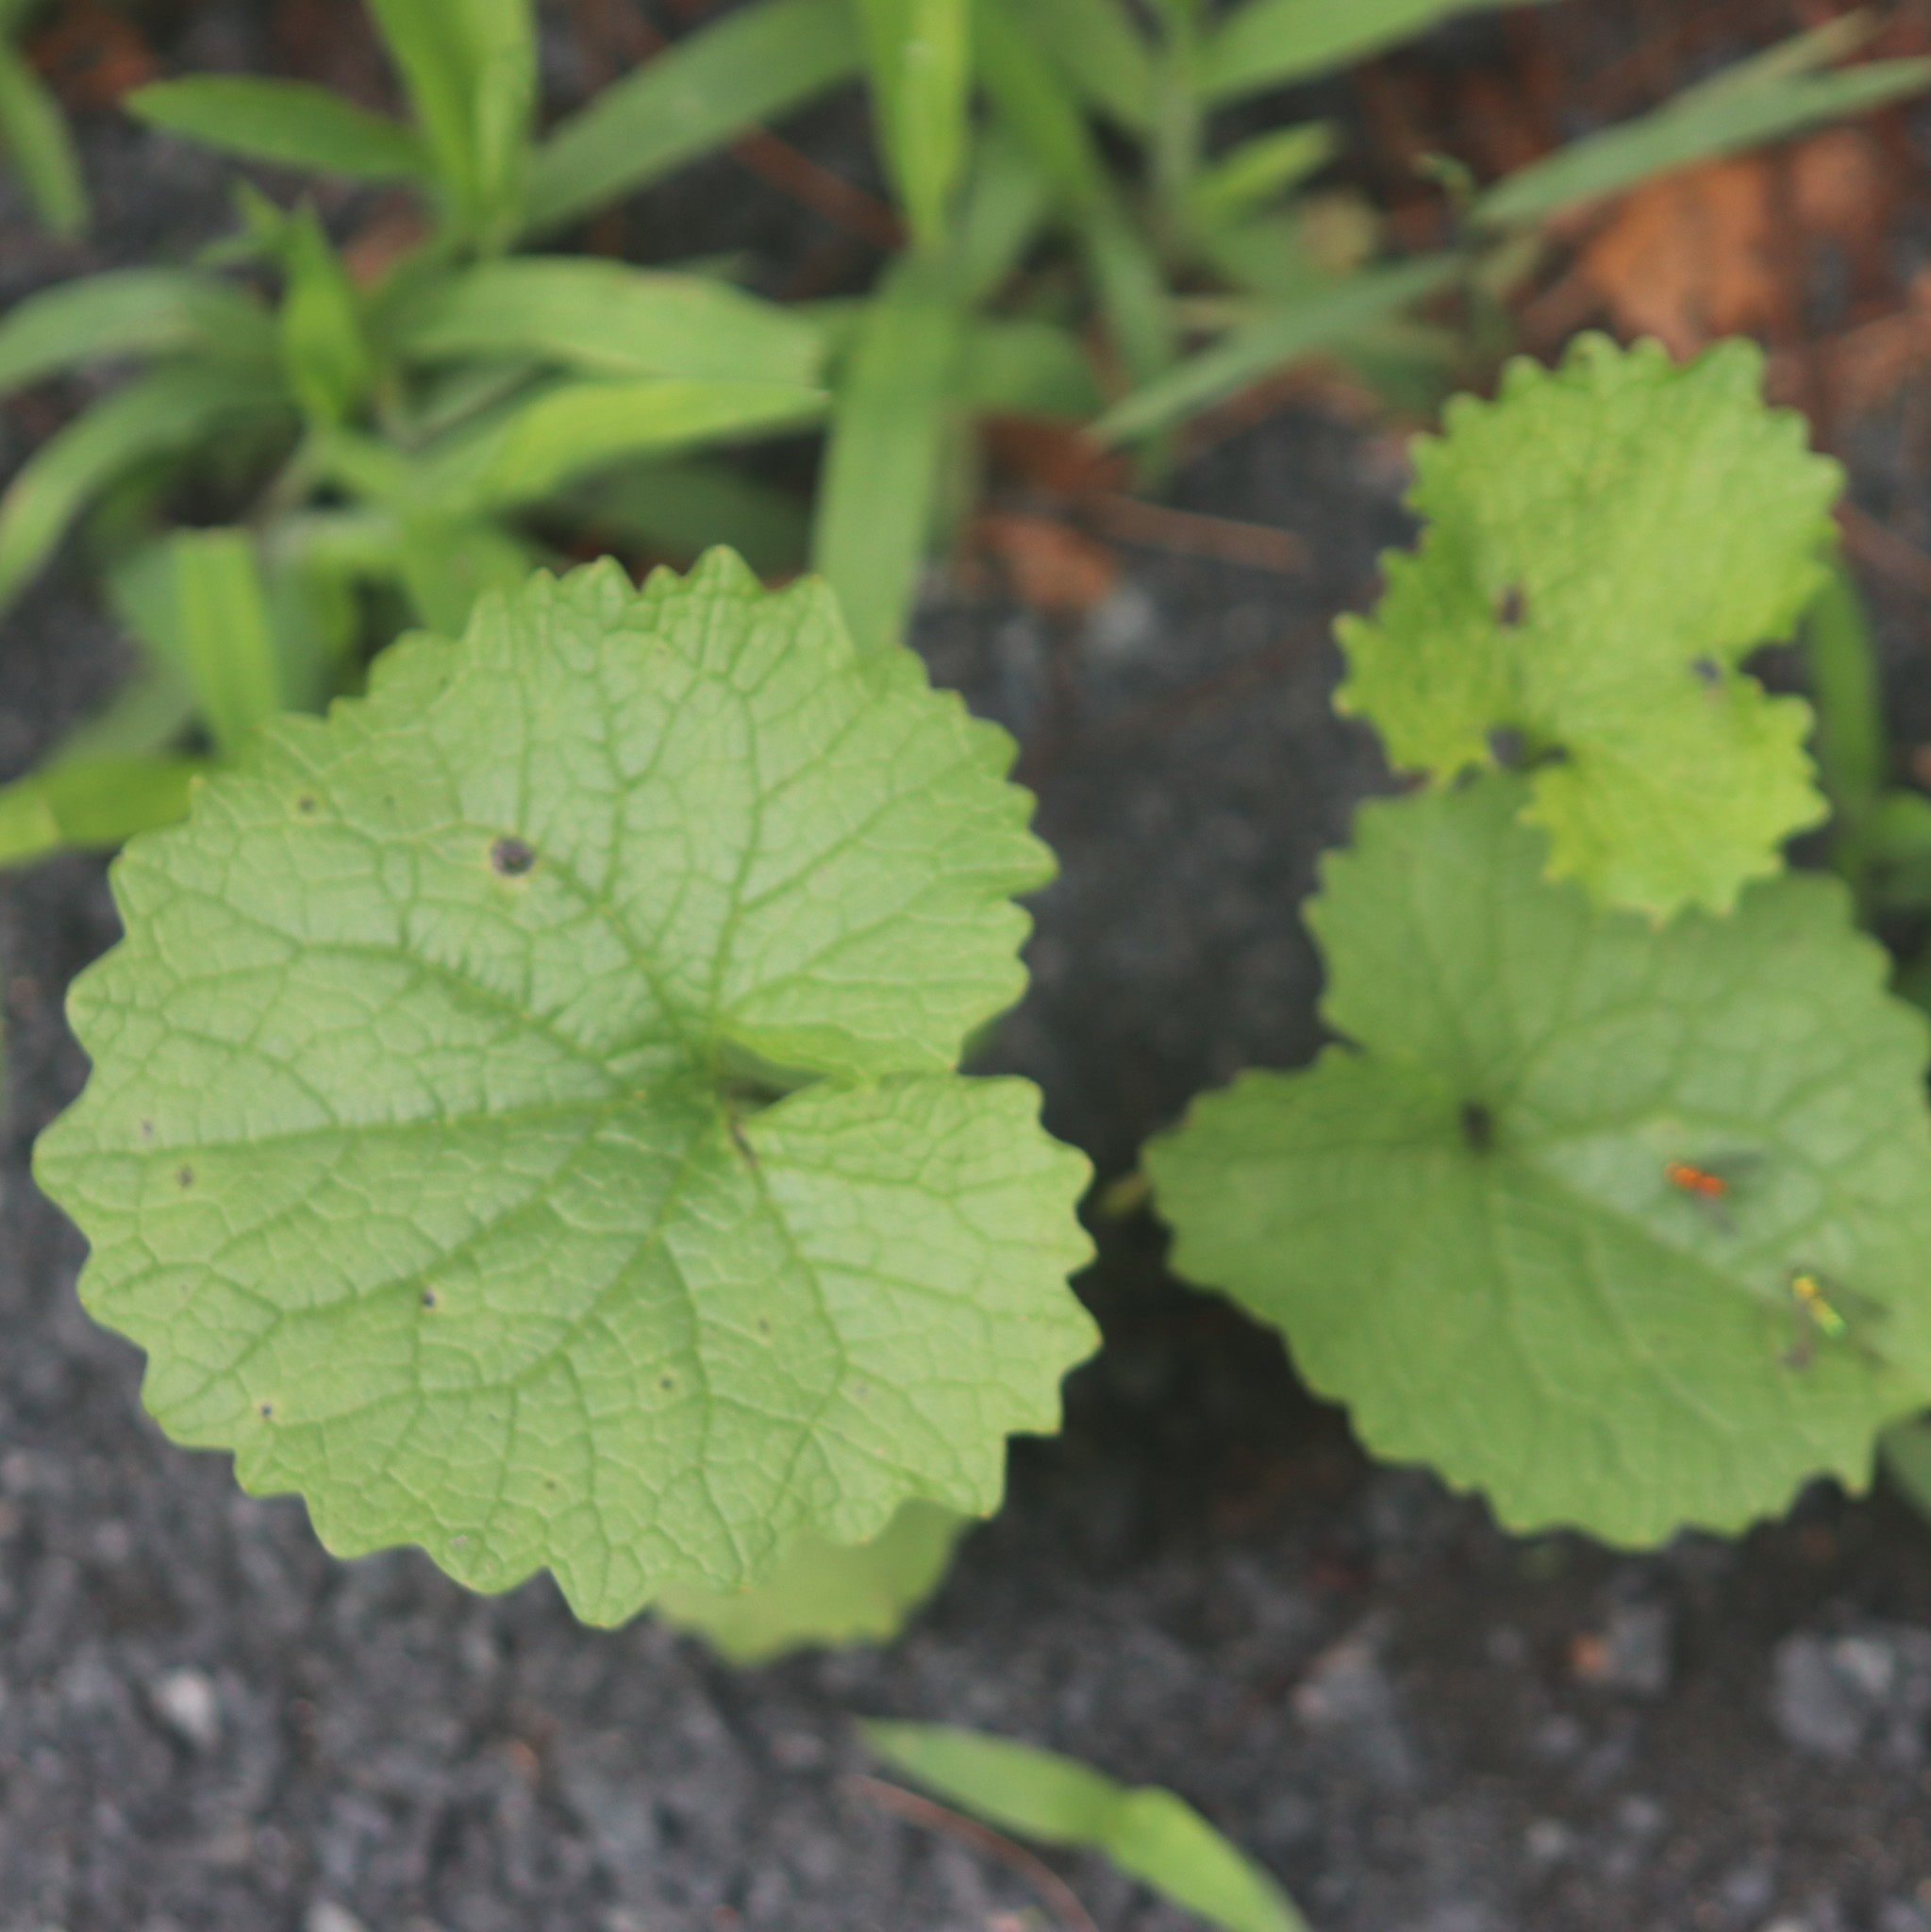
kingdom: Plantae
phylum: Tracheophyta
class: Magnoliopsida
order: Brassicales
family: Brassicaceae
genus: Alliaria
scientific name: Alliaria petiolata
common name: Garlic mustard
